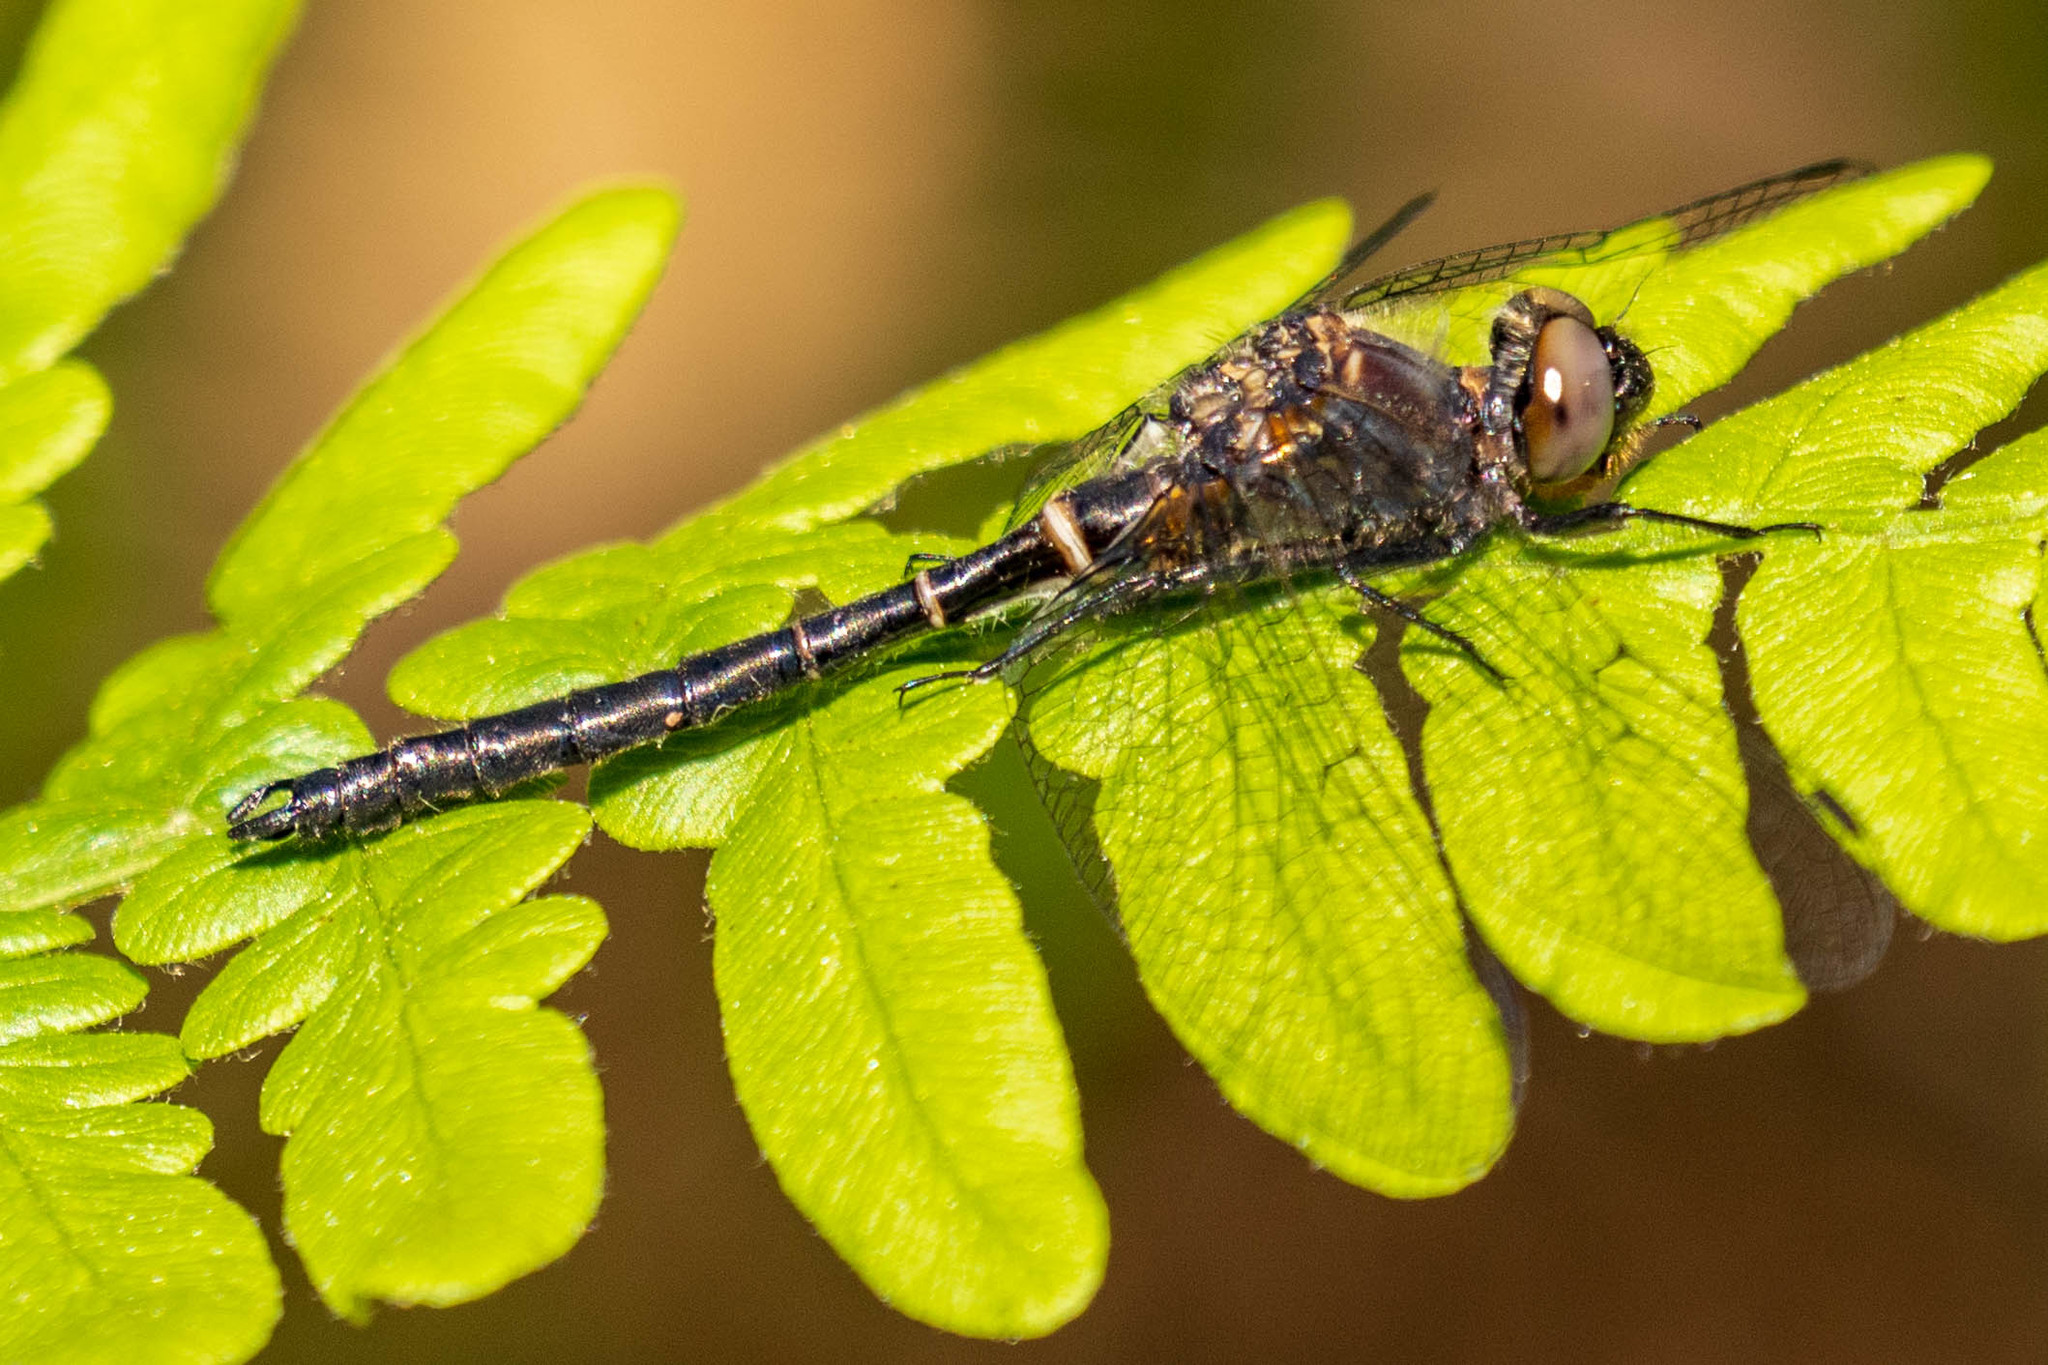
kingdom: Animalia
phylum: Arthropoda
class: Insecta
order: Odonata
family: Corduliidae
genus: Williamsonia
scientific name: Williamsonia fletcheri
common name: Ebony boghaunter
